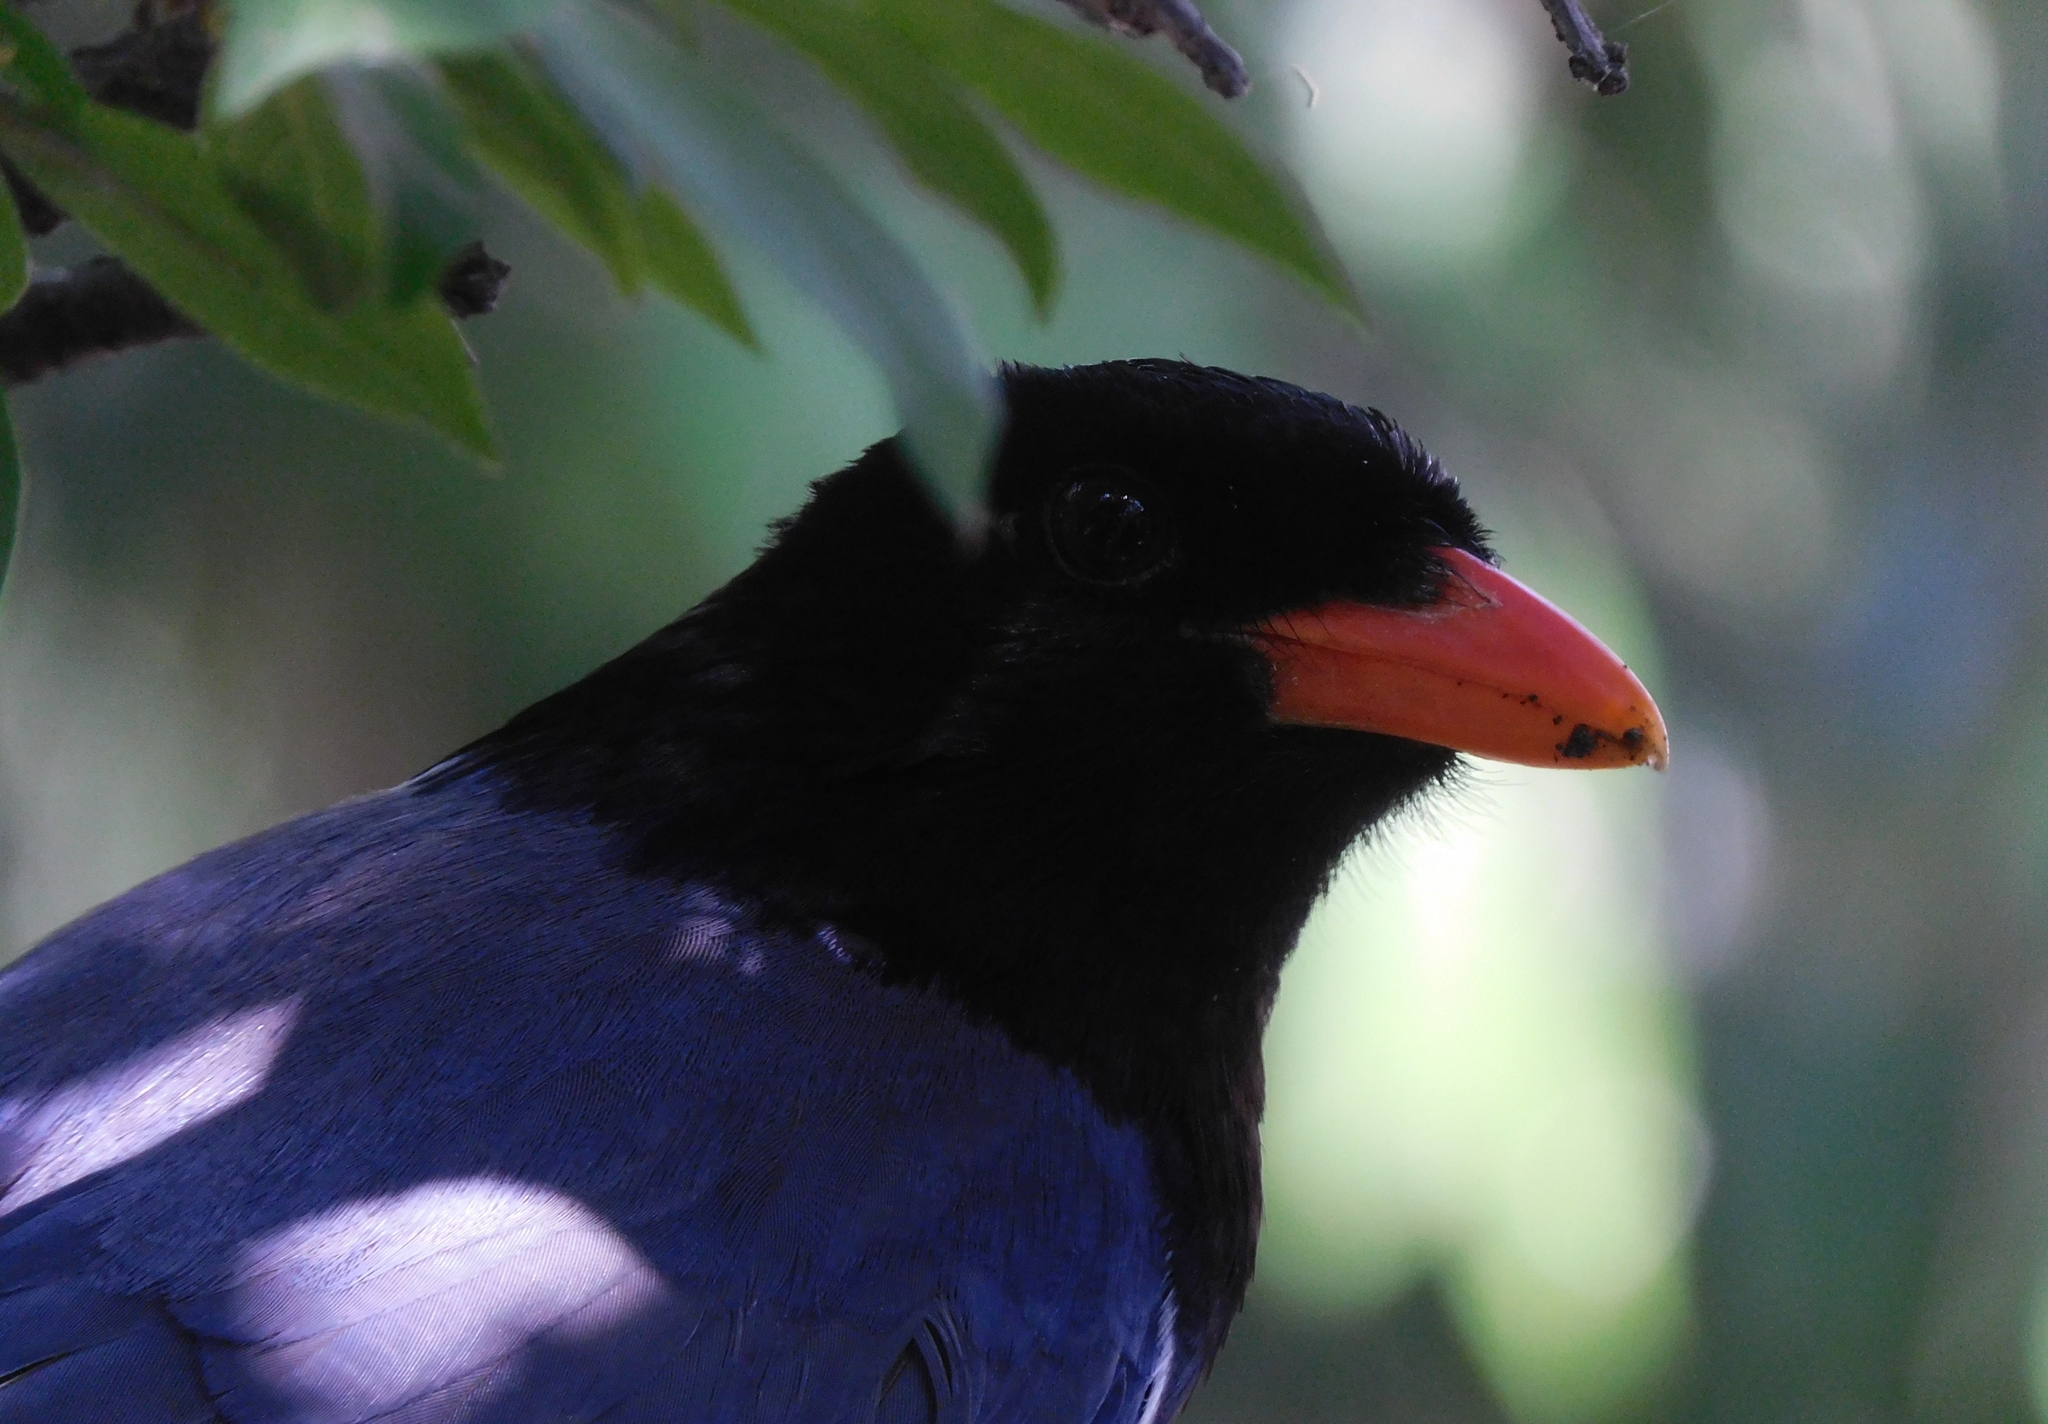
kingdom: Animalia
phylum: Chordata
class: Aves
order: Passeriformes
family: Corvidae
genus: Urocissa
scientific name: Urocissa erythroryncha
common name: Red-billed blue magpie
